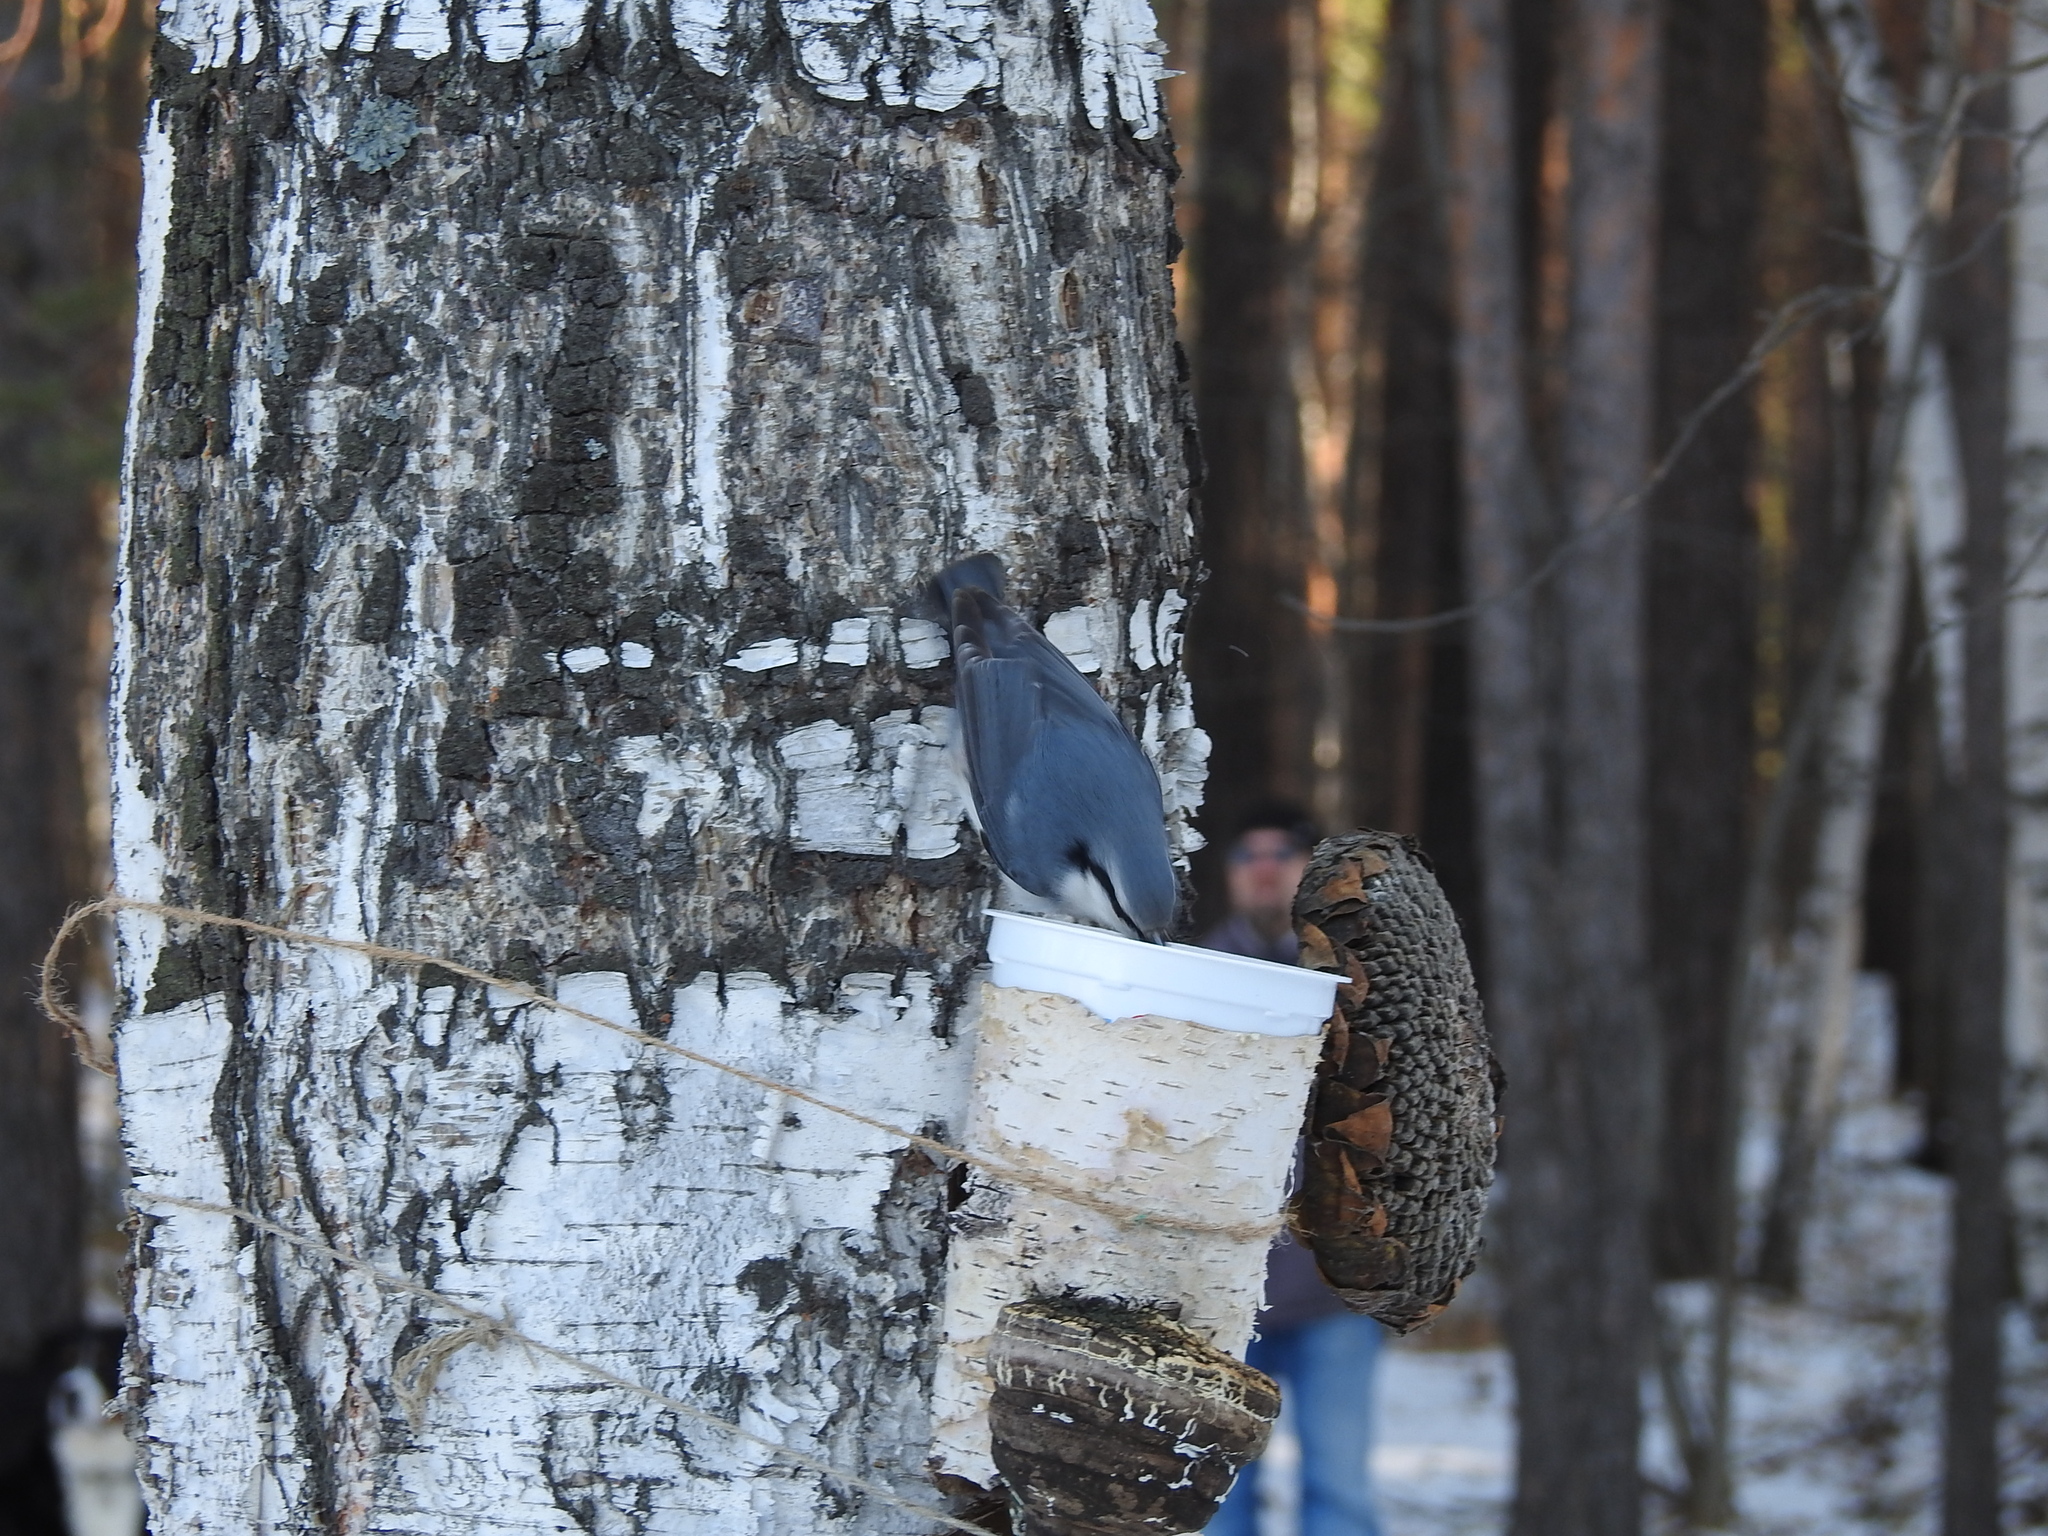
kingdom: Animalia
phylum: Chordata
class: Aves
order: Passeriformes
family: Sittidae
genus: Sitta
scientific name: Sitta europaea
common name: Eurasian nuthatch
